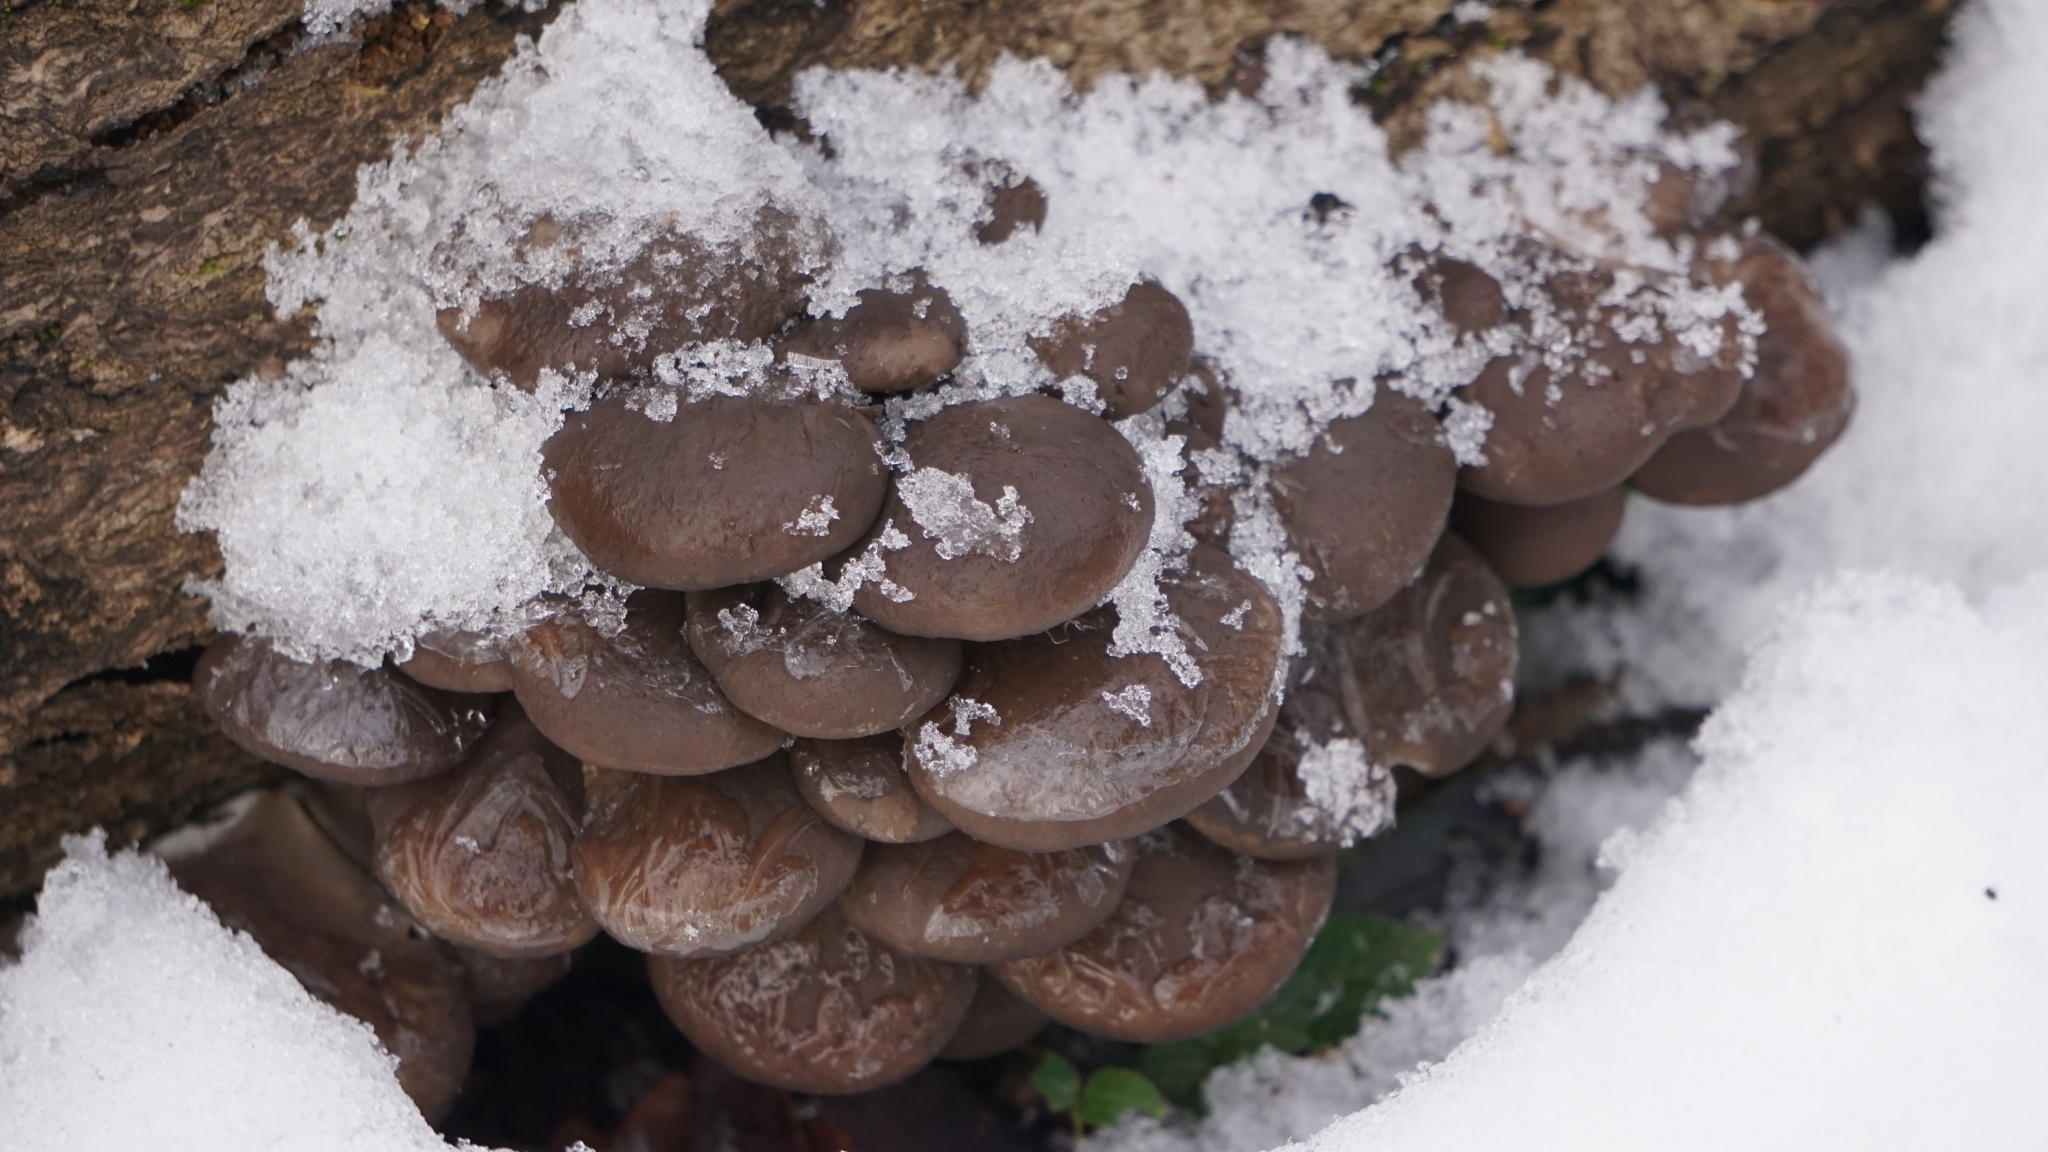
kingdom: Fungi
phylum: Basidiomycota
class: Agaricomycetes
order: Agaricales
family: Pleurotaceae
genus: Pleurotus
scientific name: Pleurotus ostreatus
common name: Oyster mushroom
